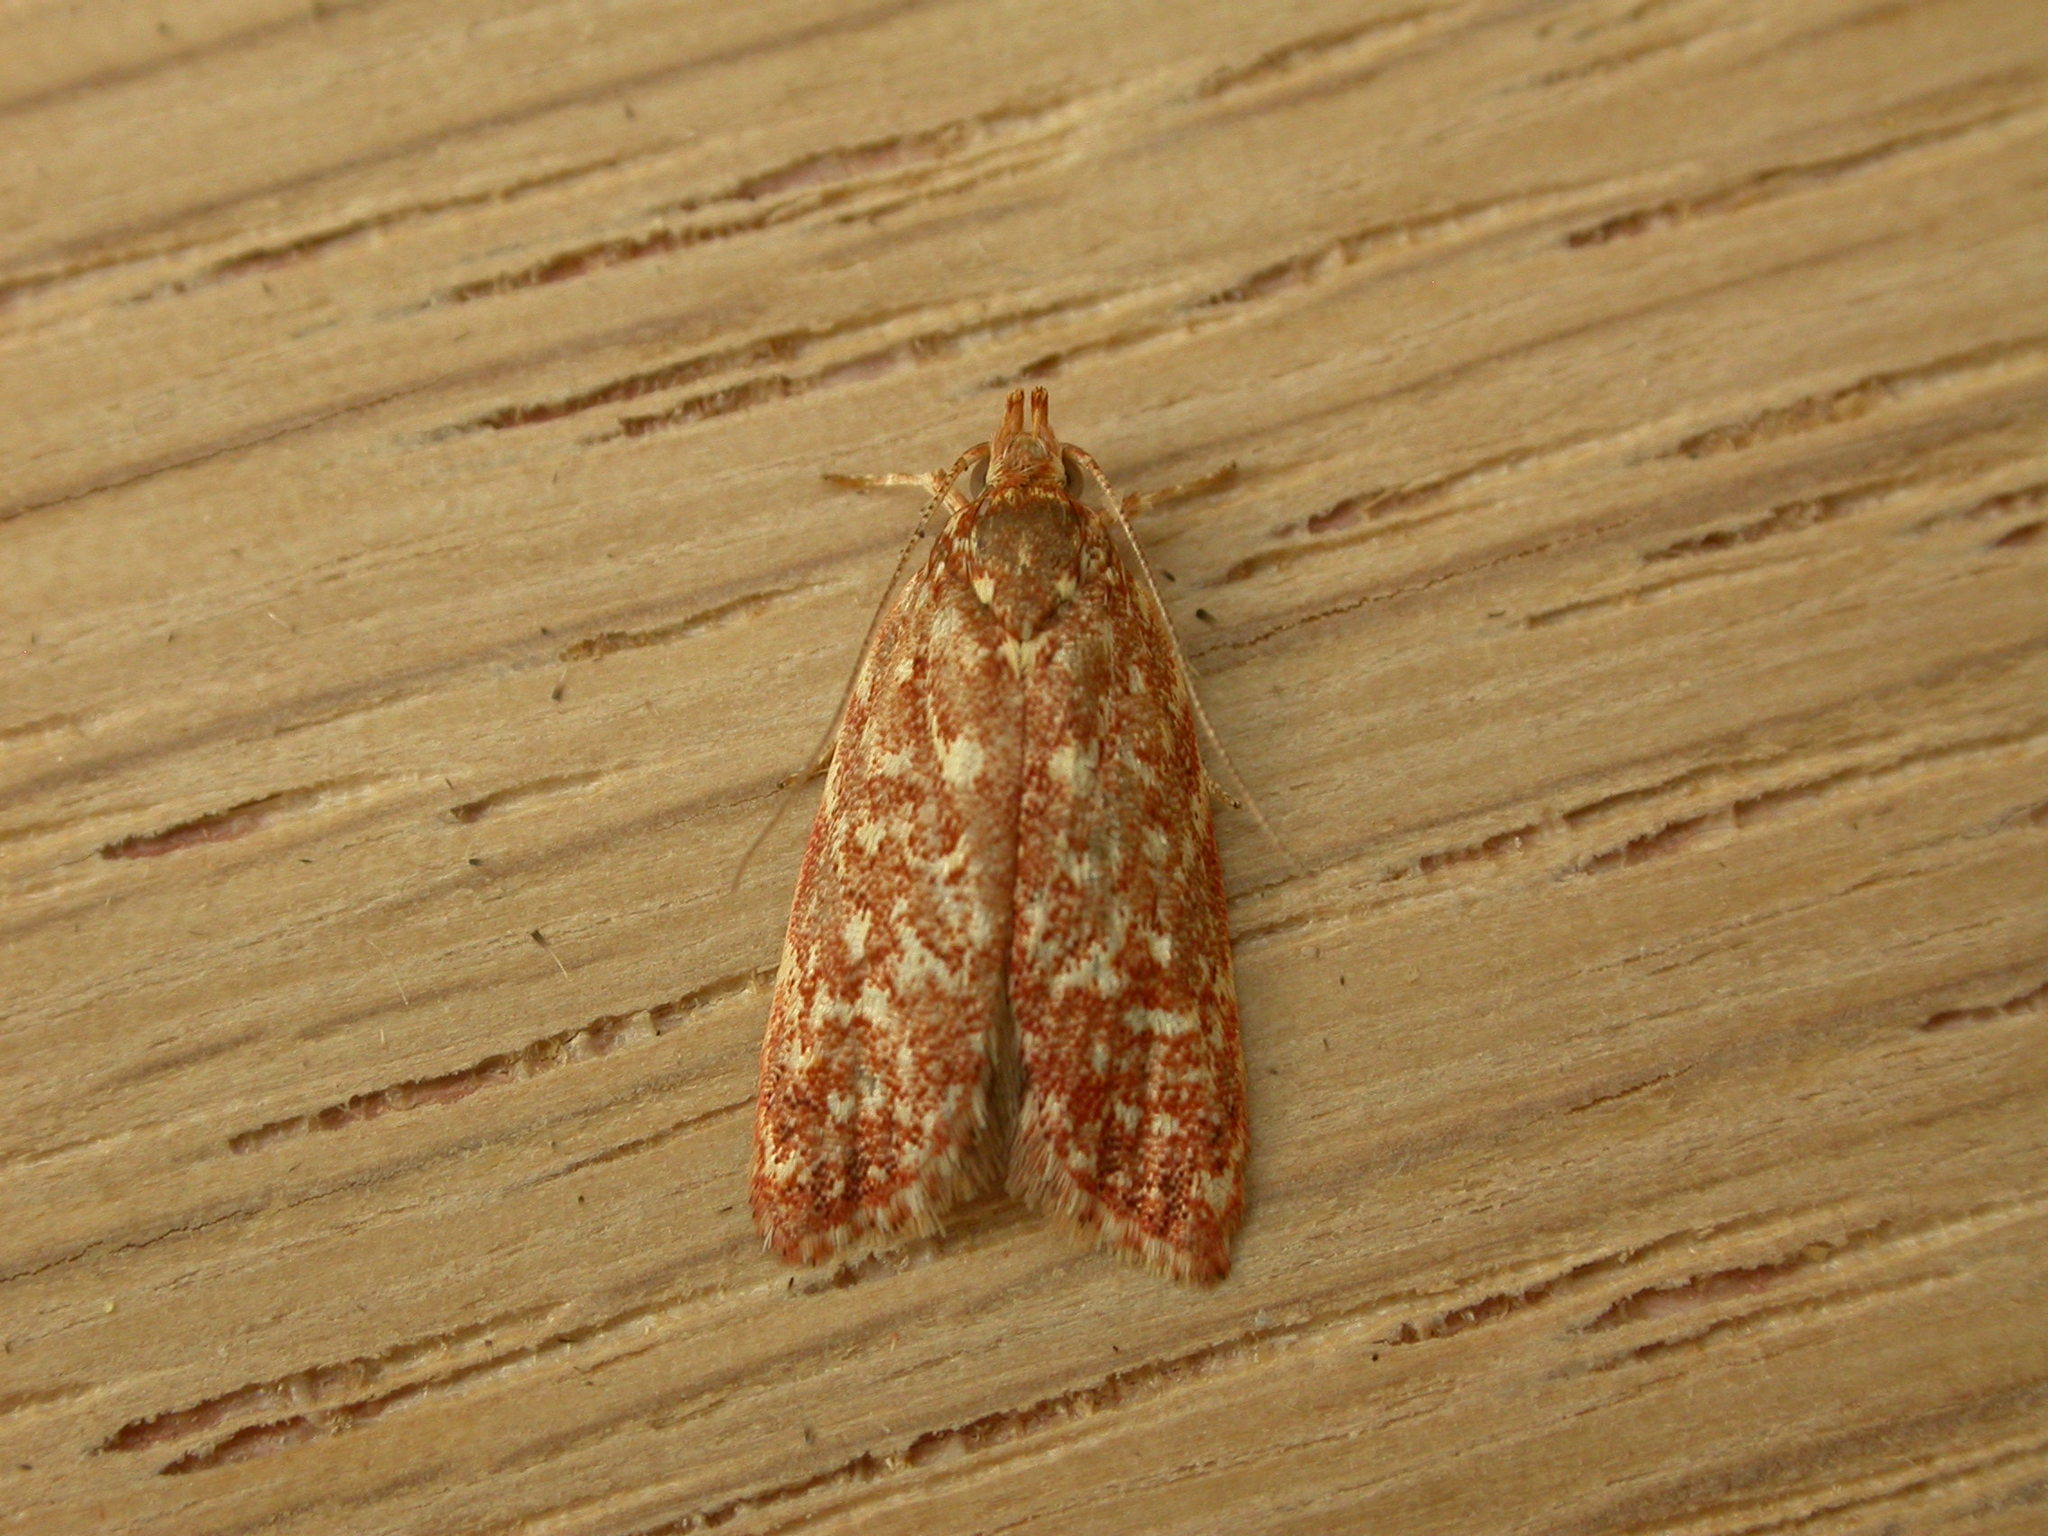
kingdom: Animalia
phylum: Arthropoda
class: Insecta
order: Lepidoptera
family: Oecophoridae
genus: Syringoseca
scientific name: Syringoseca rhodoxantha
